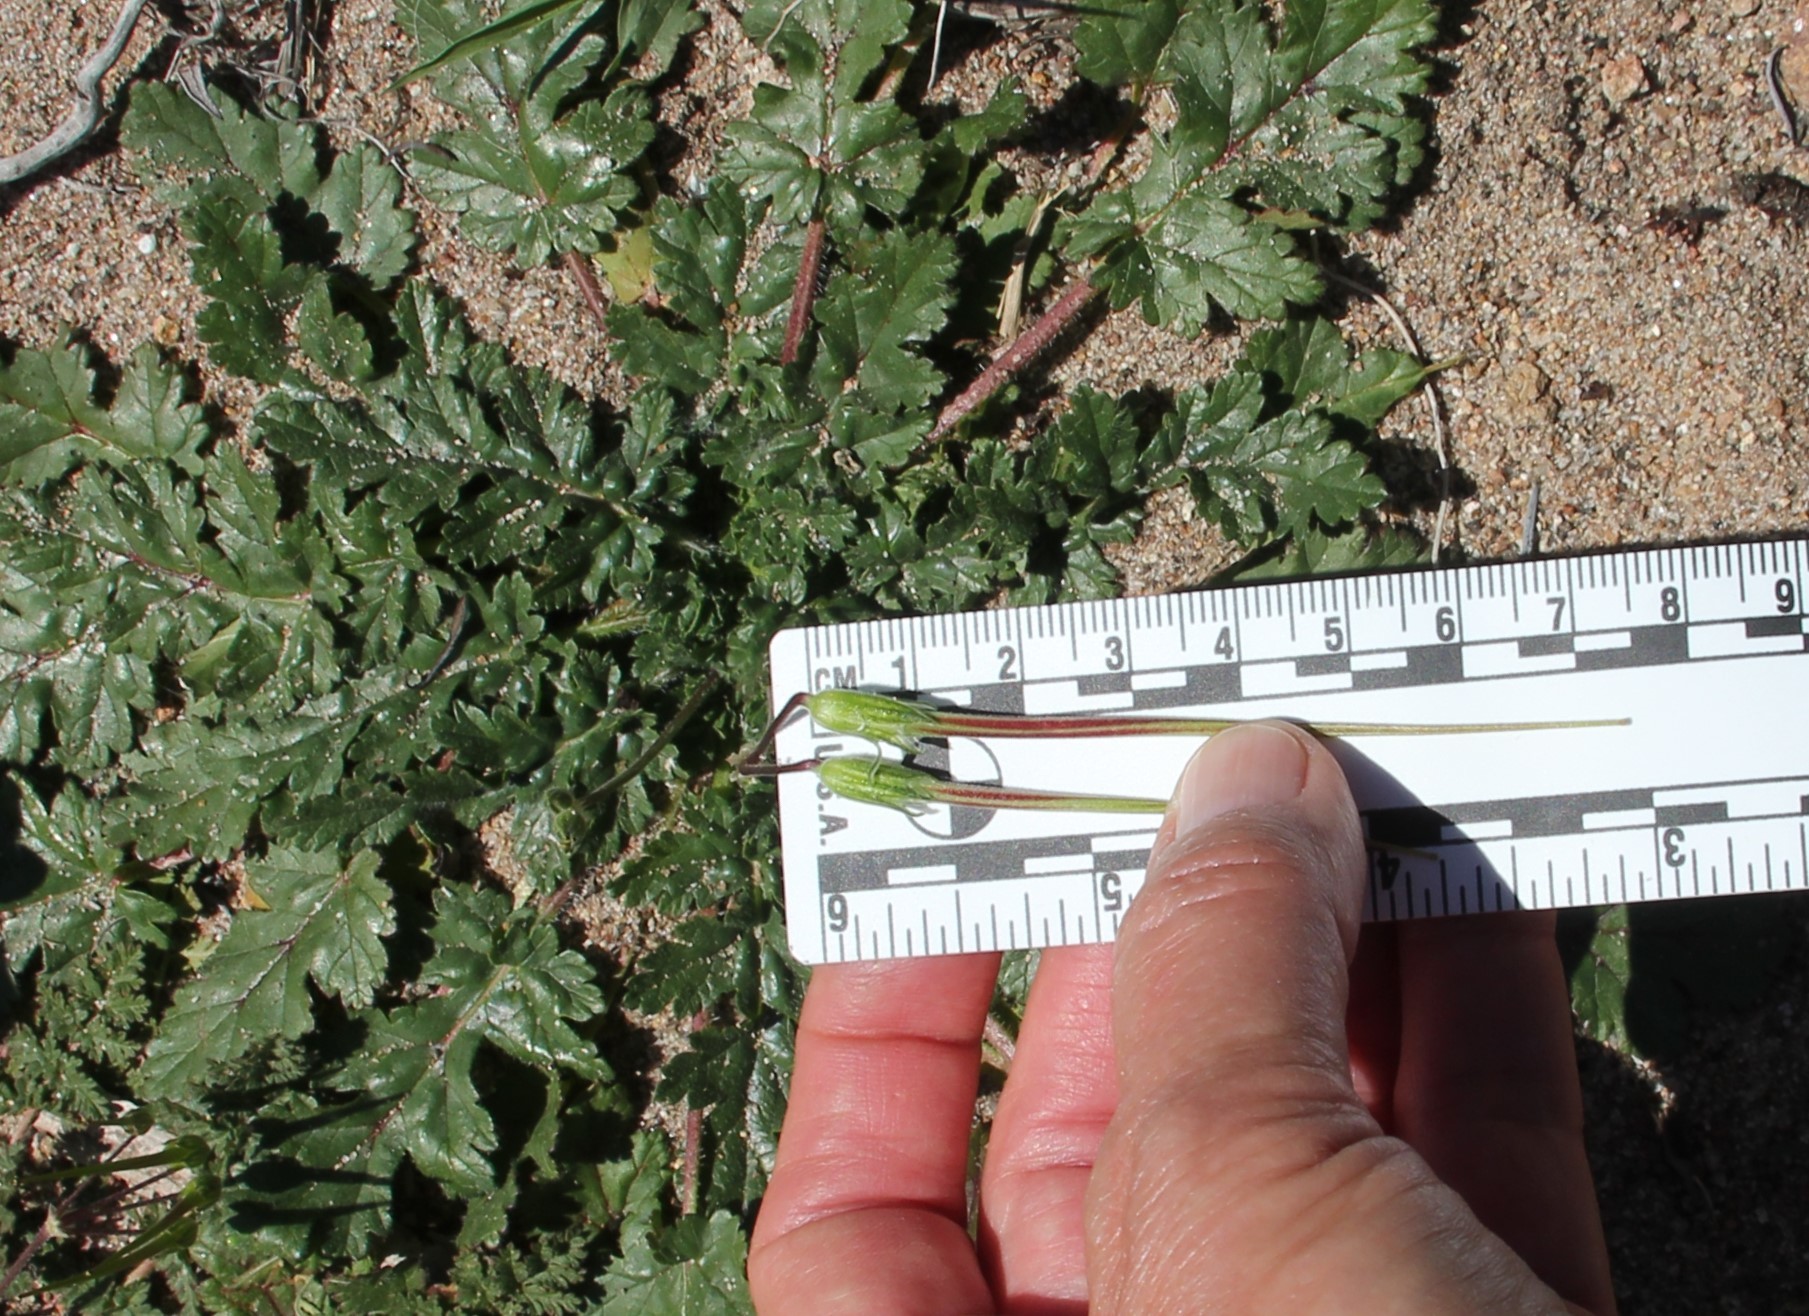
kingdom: Plantae
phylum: Tracheophyta
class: Magnoliopsida
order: Geraniales
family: Geraniaceae
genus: Erodium
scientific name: Erodium
